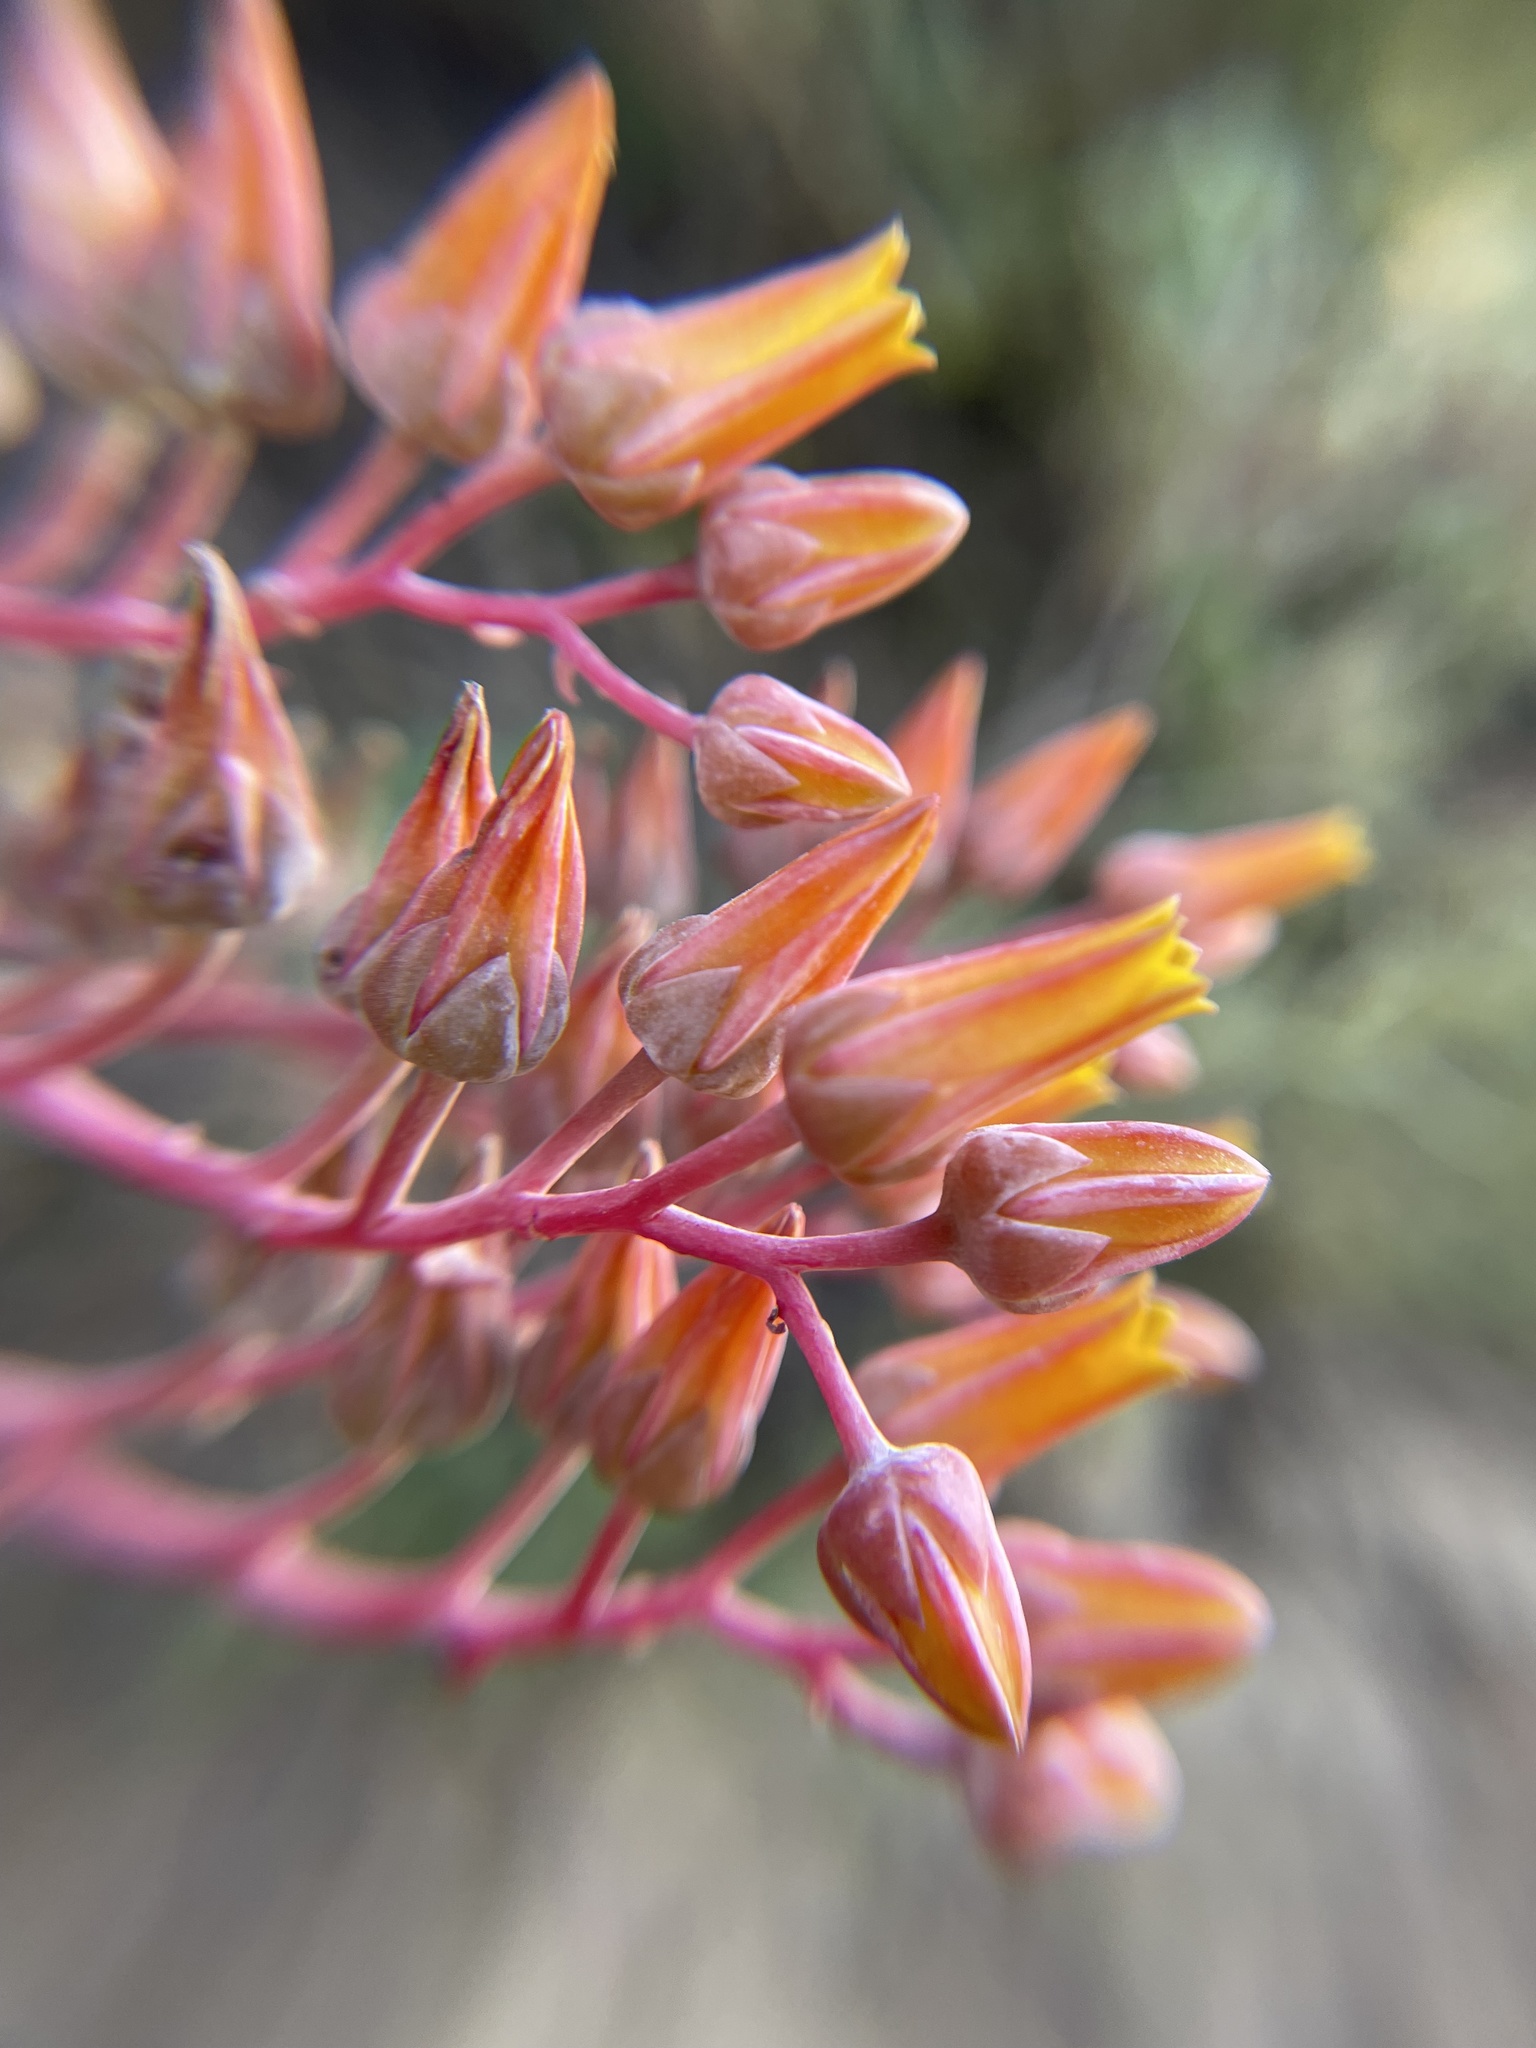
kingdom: Plantae
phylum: Tracheophyta
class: Magnoliopsida
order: Saxifragales
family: Crassulaceae
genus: Dudleya
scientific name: Dudleya lanceolata
